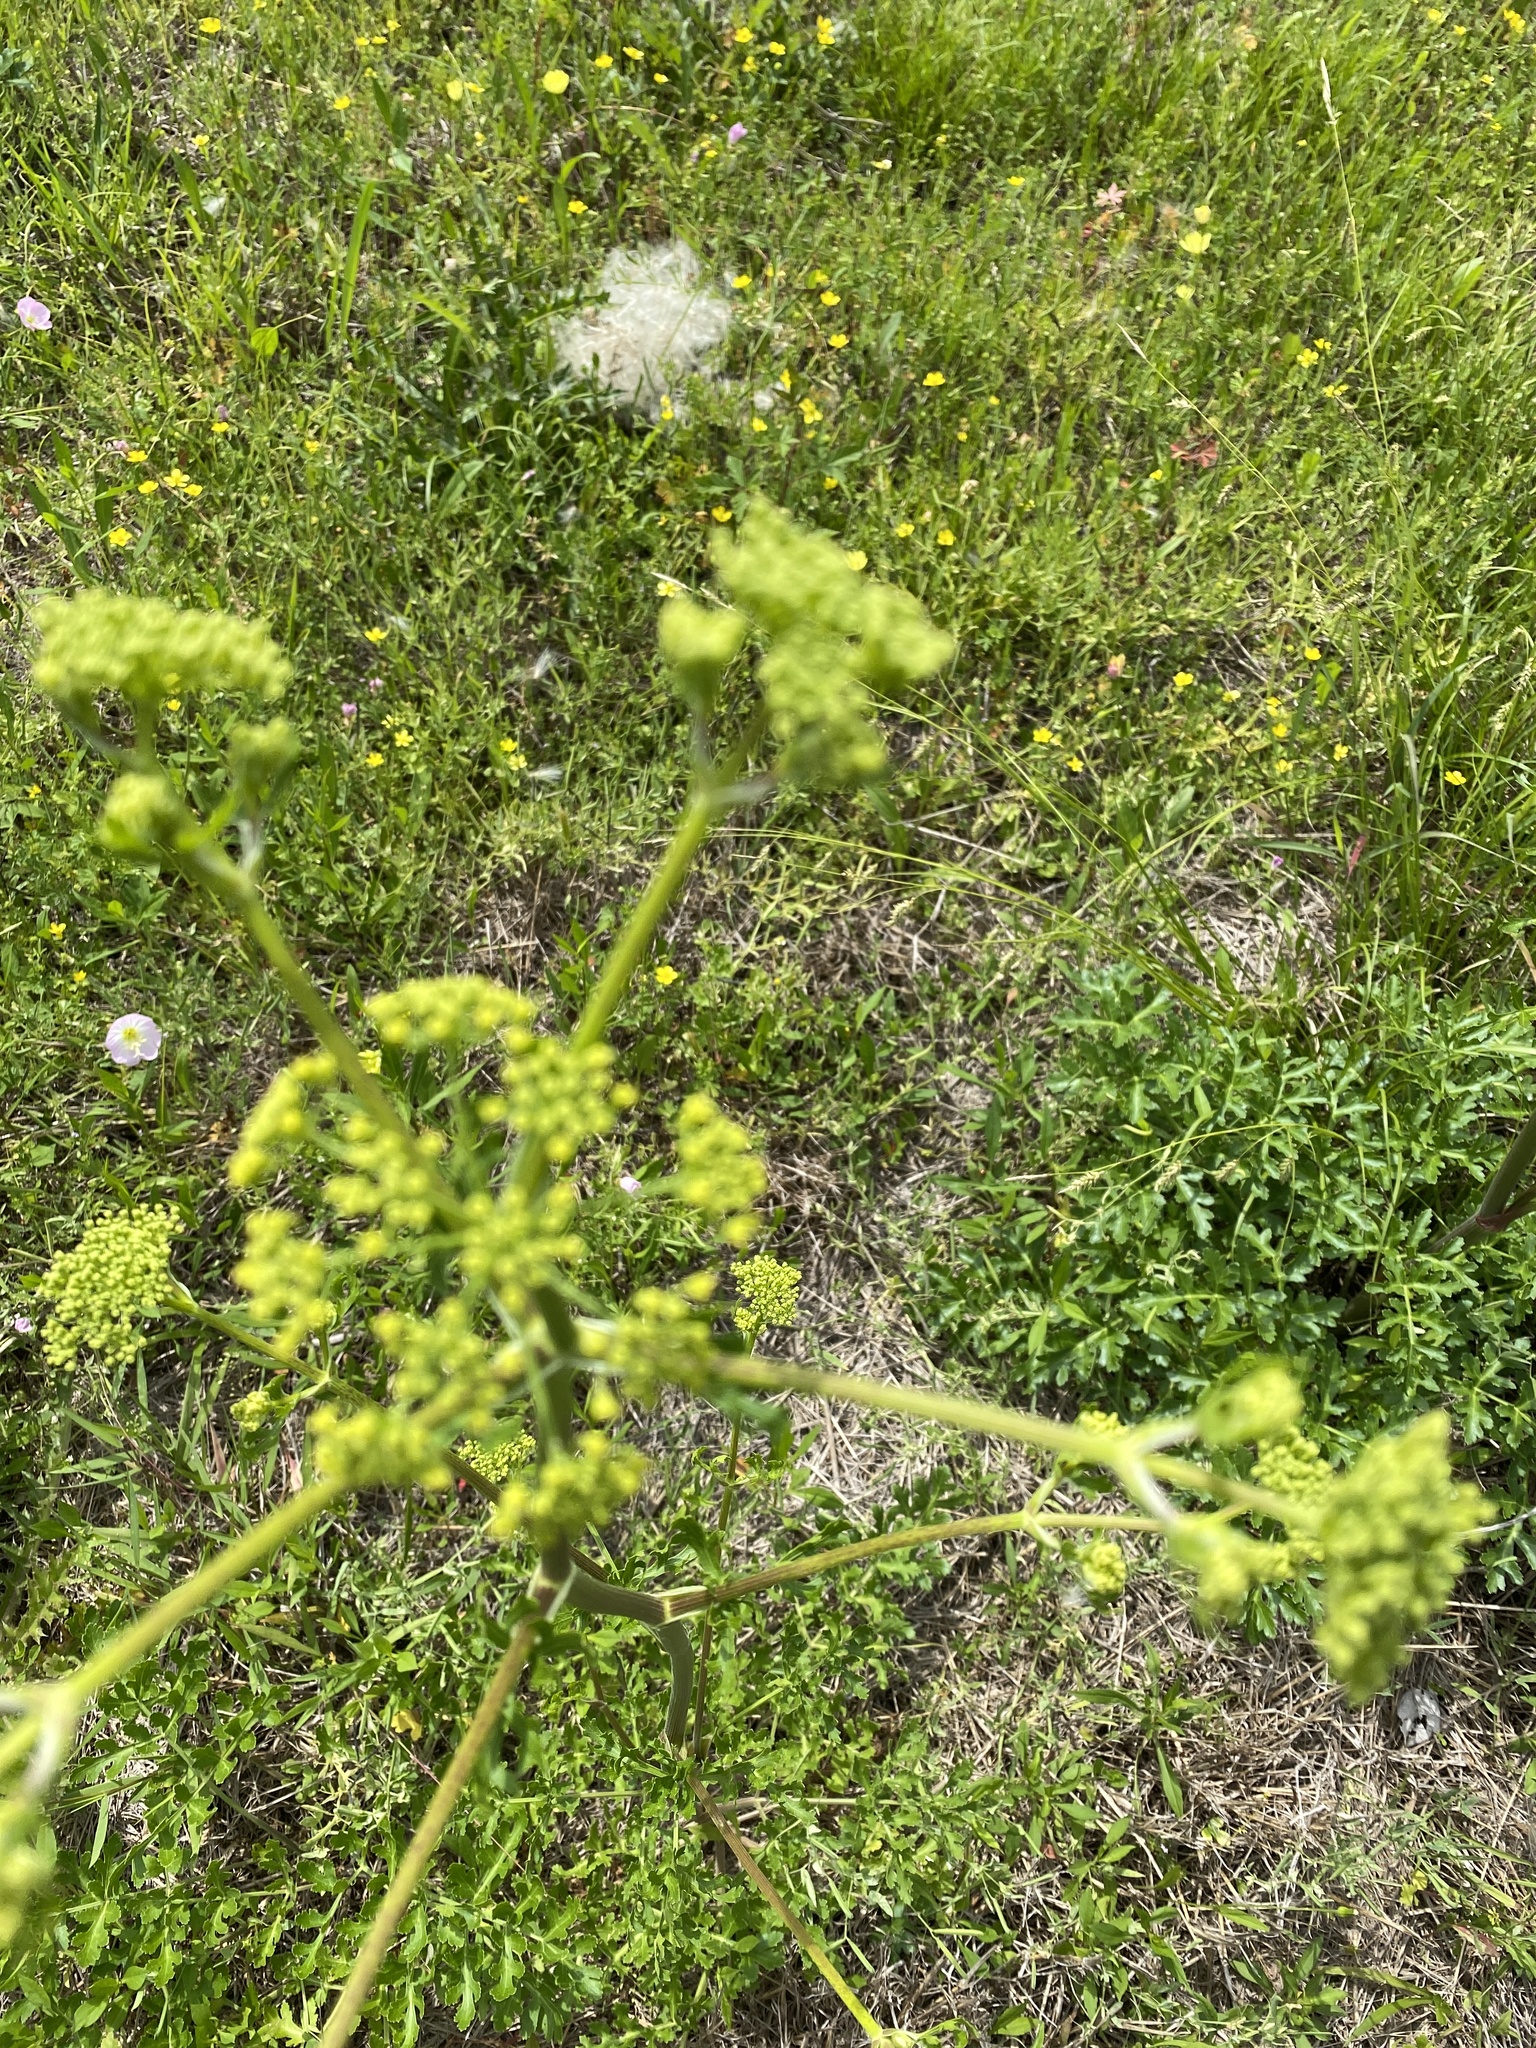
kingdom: Plantae
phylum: Tracheophyta
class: Magnoliopsida
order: Apiales
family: Apiaceae
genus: Polytaenia
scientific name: Polytaenia texana
